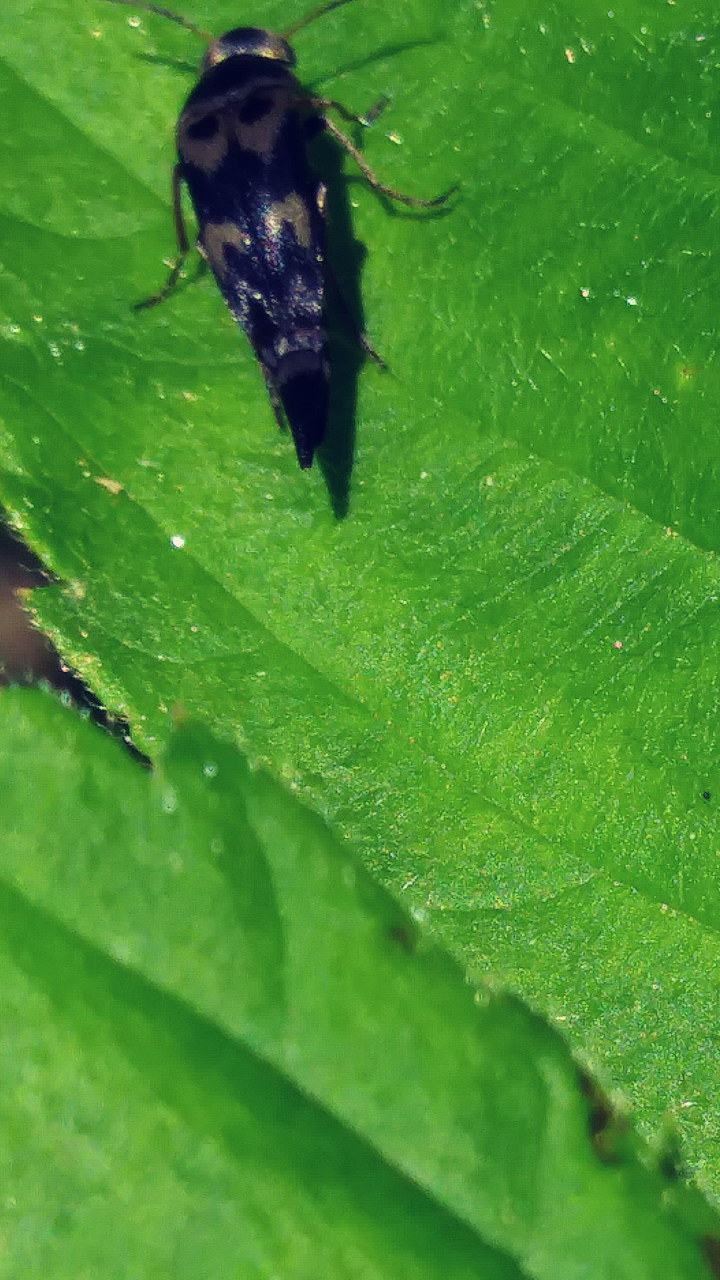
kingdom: Animalia
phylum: Arthropoda
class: Insecta
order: Coleoptera
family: Mordellidae
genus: Glipa
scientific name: Glipa oculata
